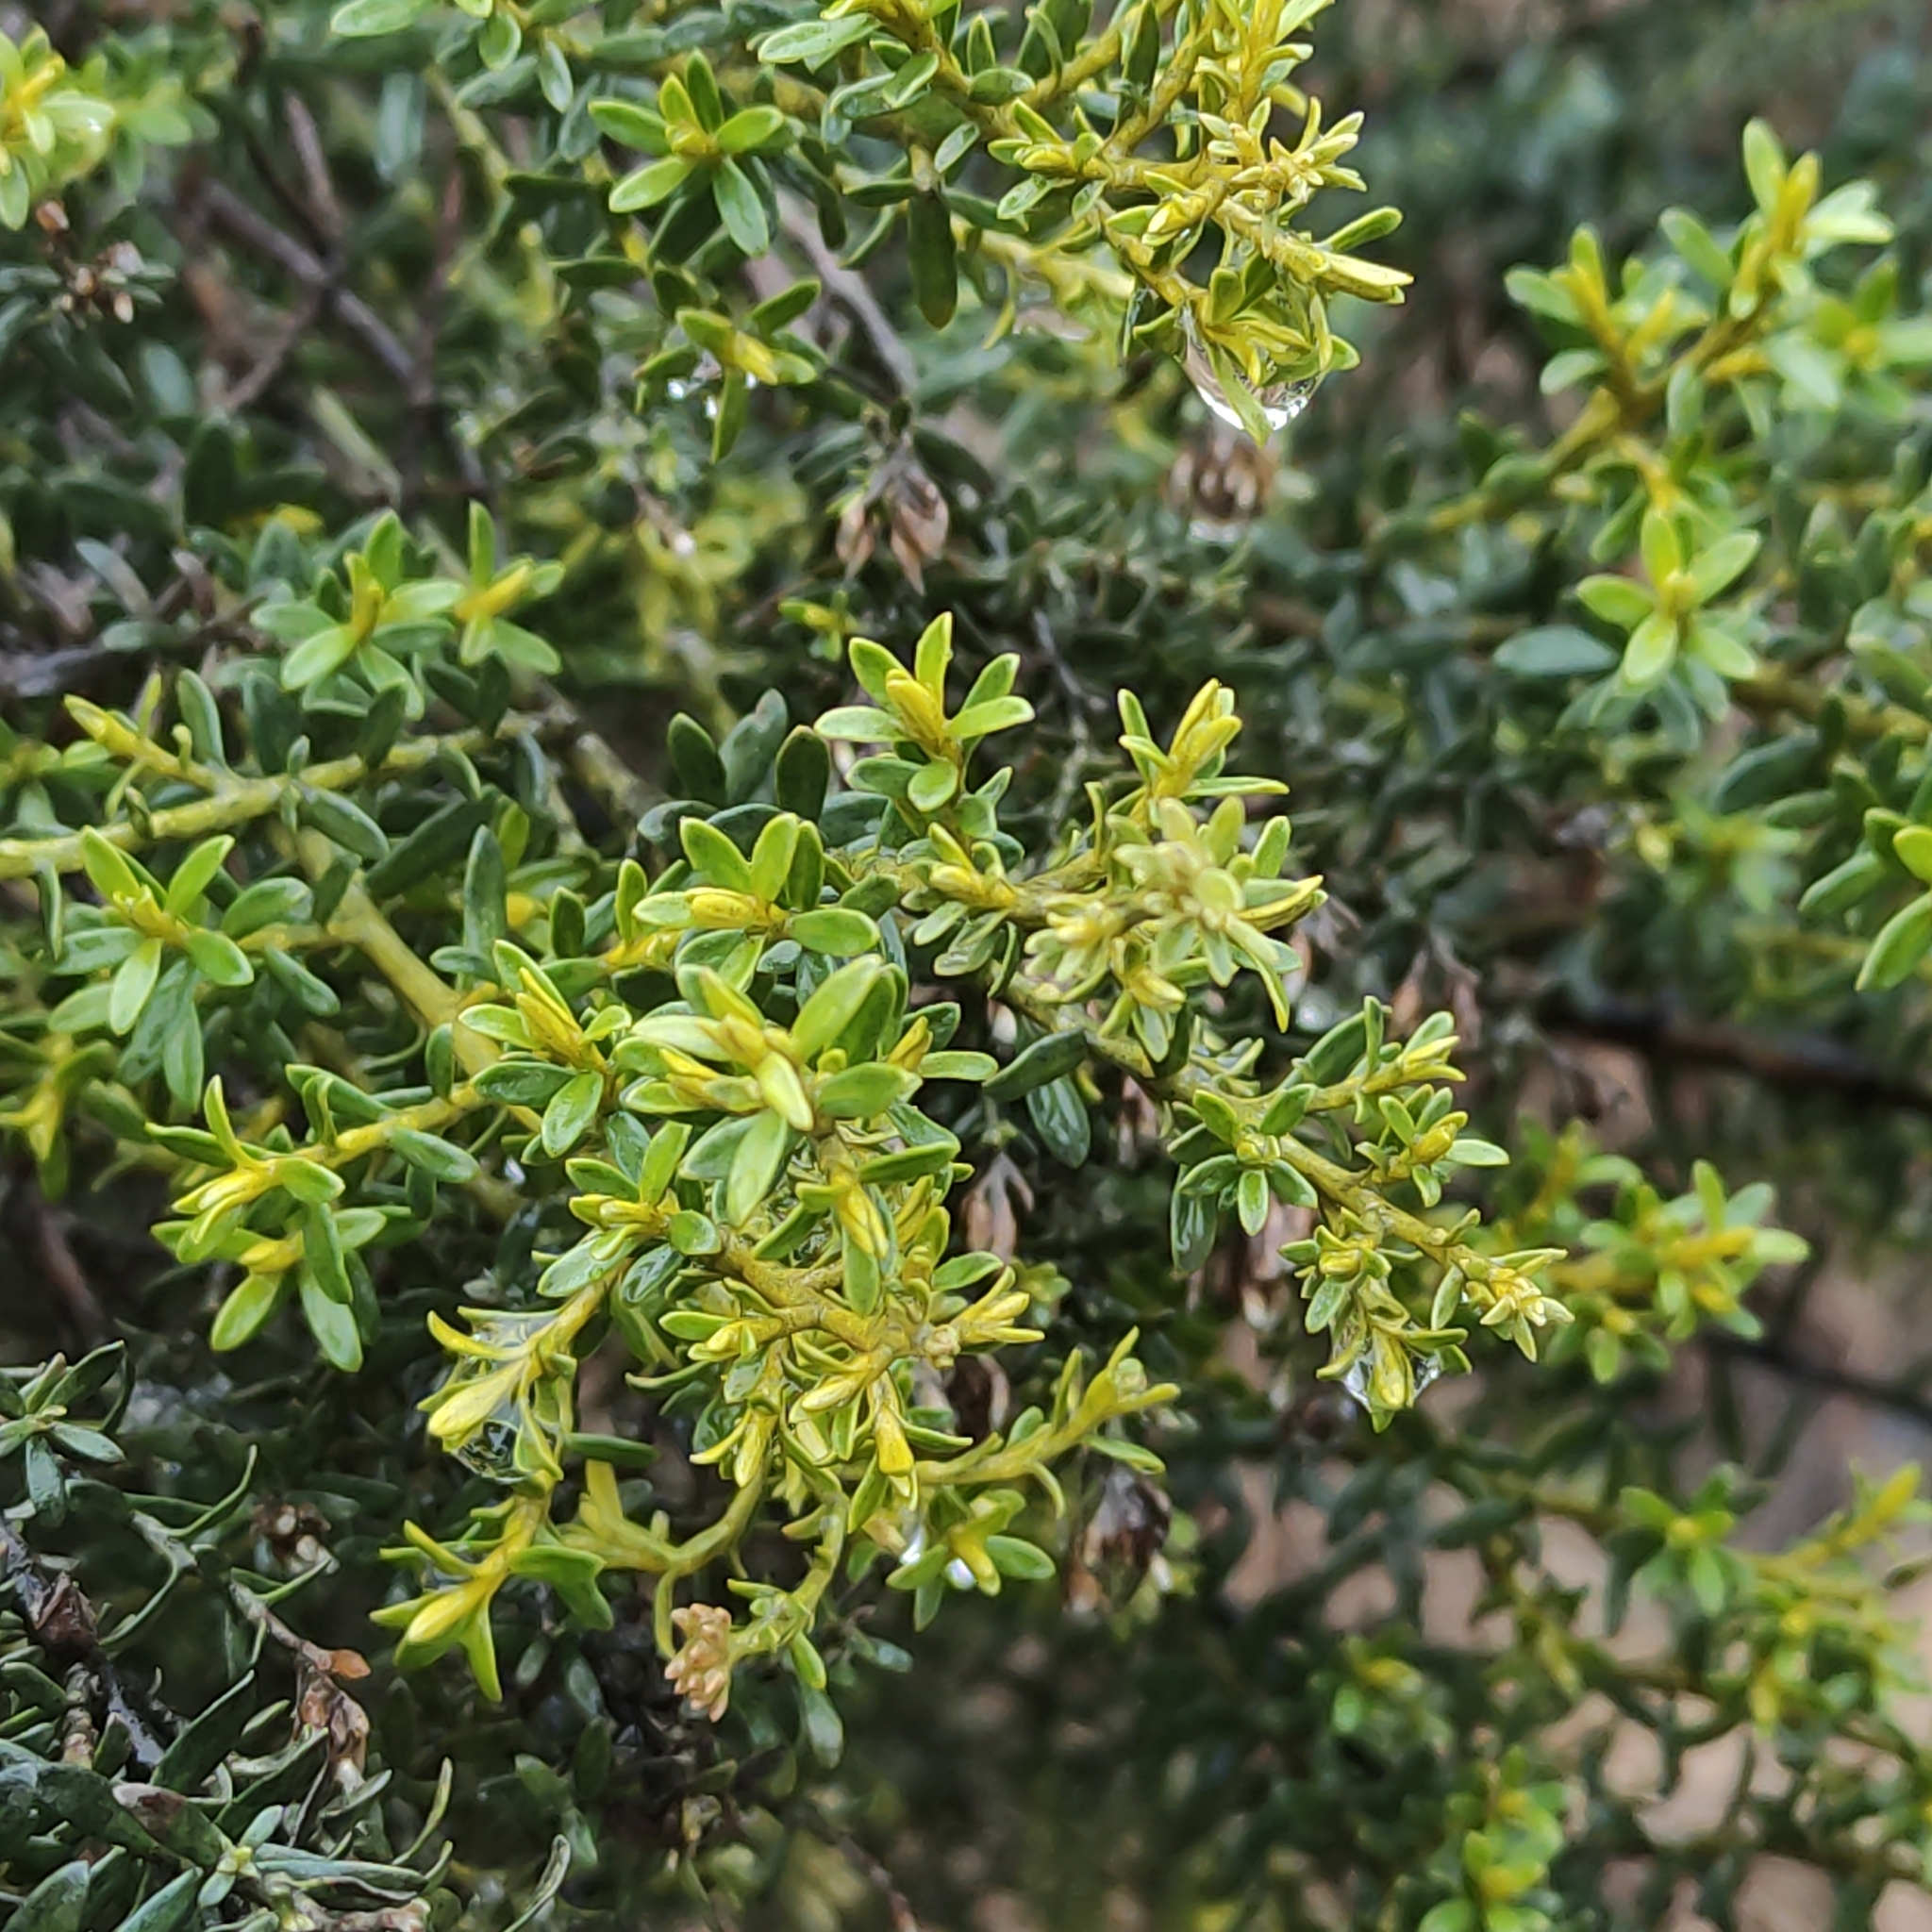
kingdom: Plantae
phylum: Tracheophyta
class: Magnoliopsida
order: Asterales
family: Asteraceae
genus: Ozothamnus
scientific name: Ozothamnus leptophyllus
